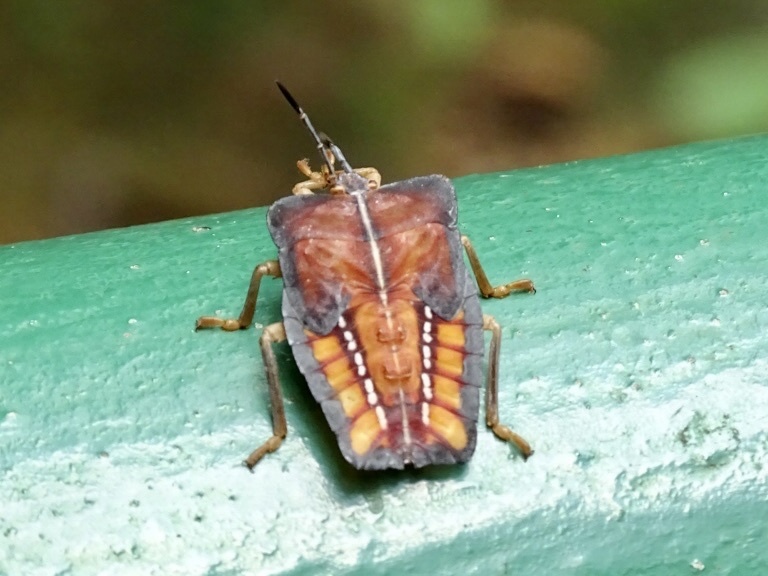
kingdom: Animalia
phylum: Arthropoda
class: Insecta
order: Hemiptera
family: Tessaratomidae
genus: Tessaratoma
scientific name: Tessaratoma papillosa
